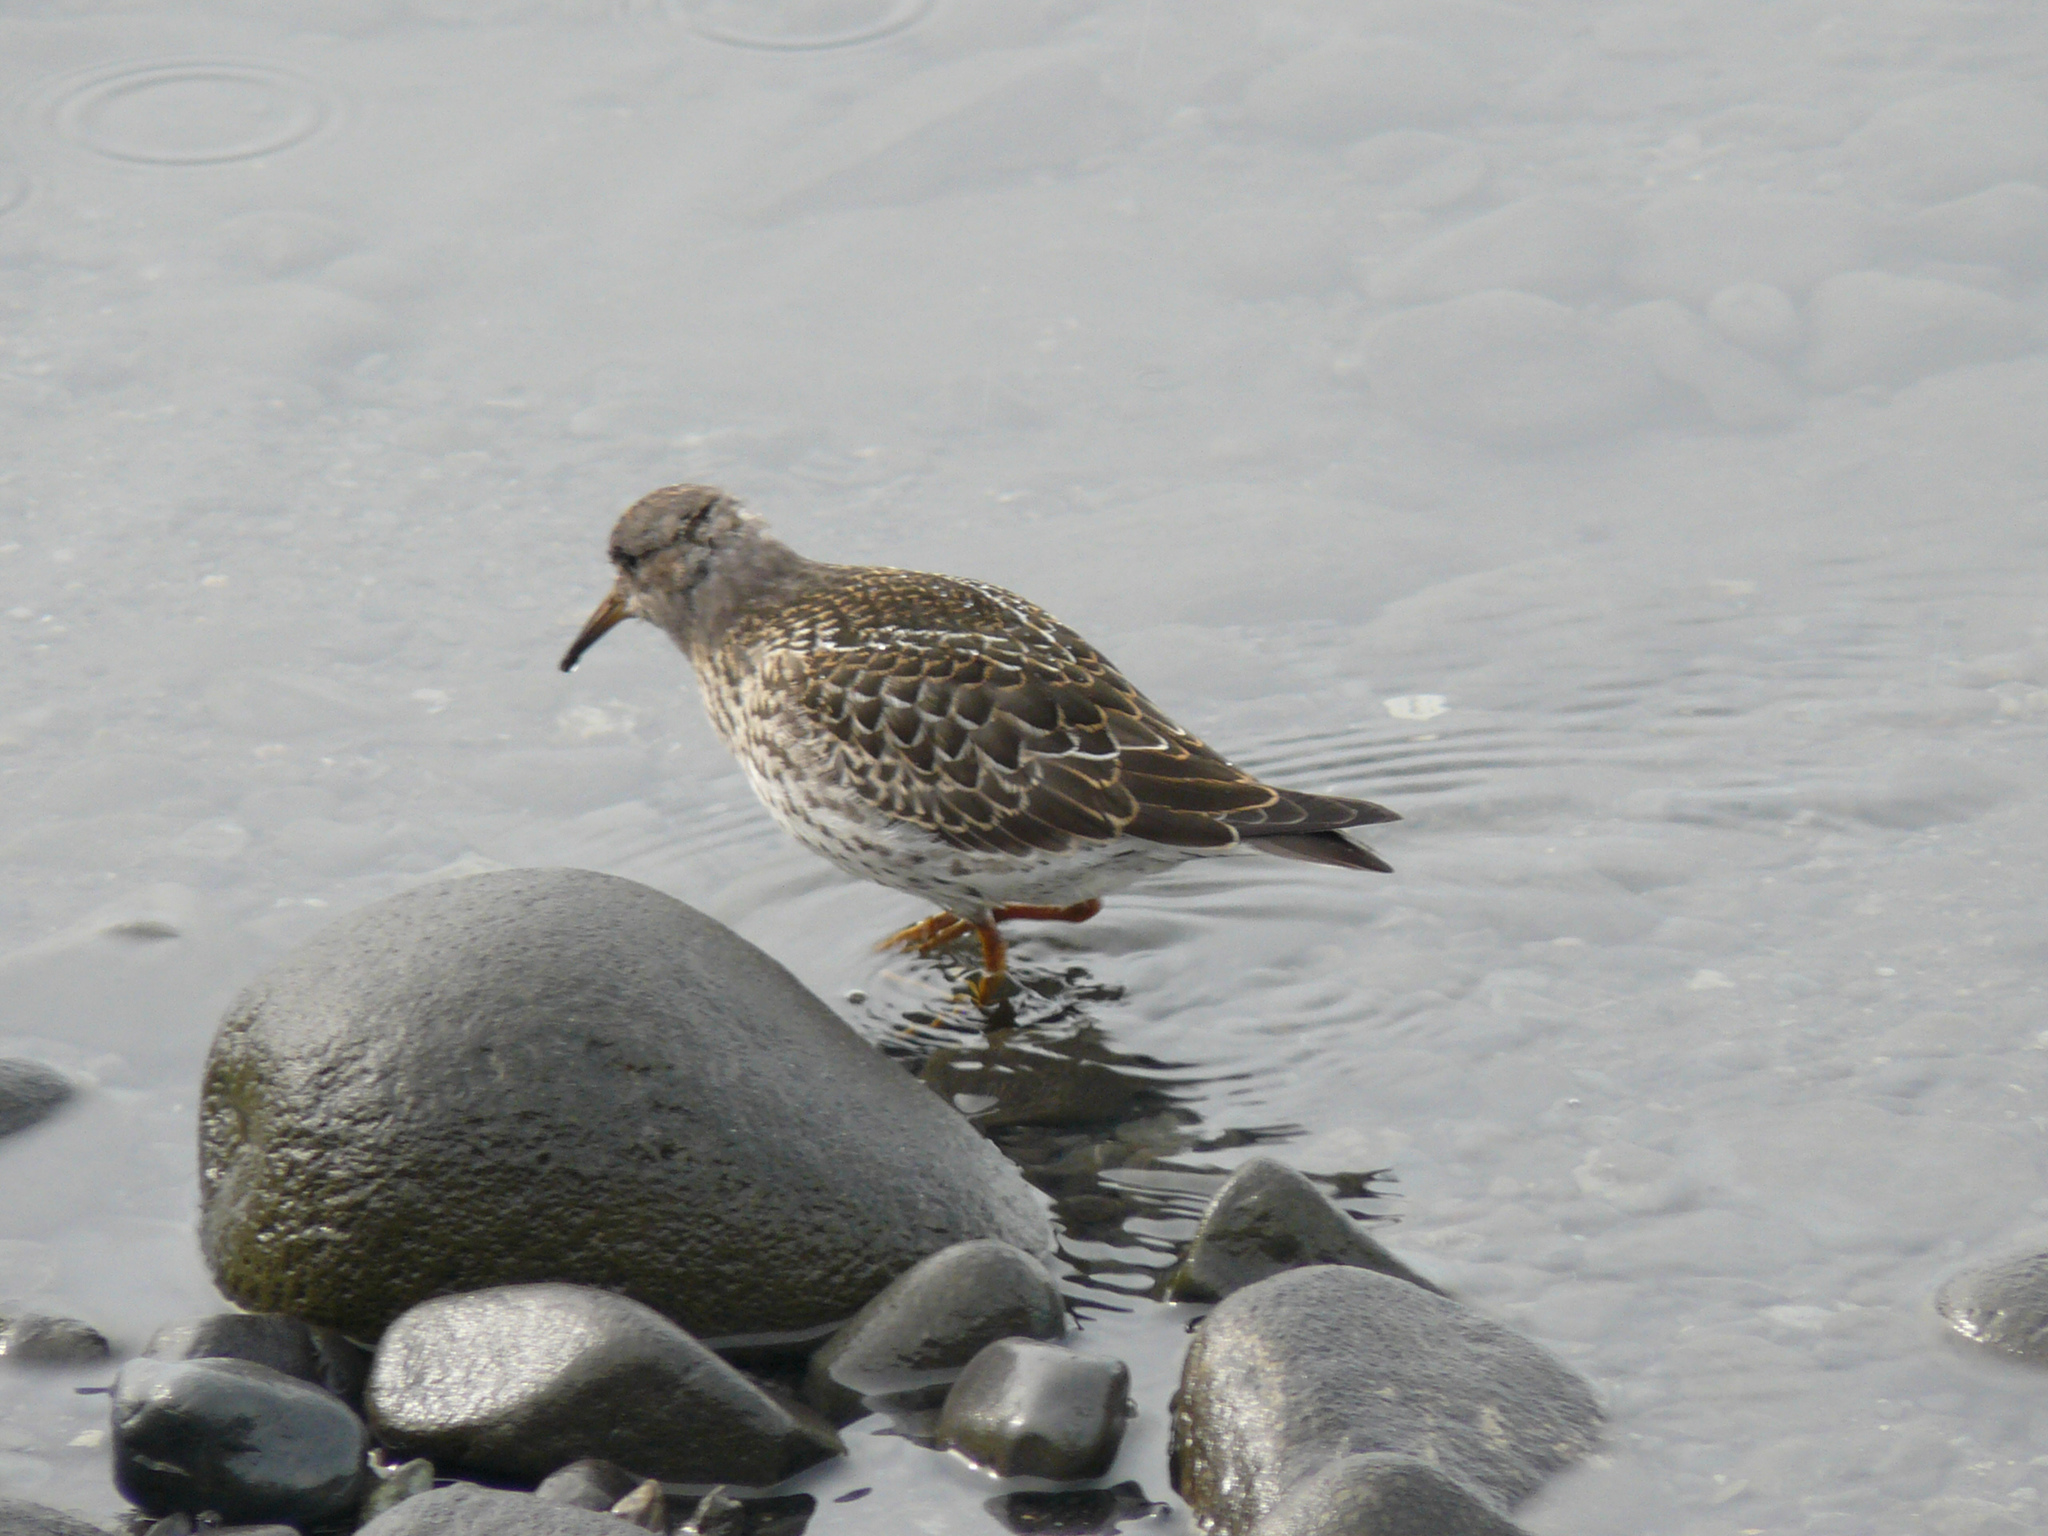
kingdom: Animalia
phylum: Chordata
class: Aves
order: Charadriiformes
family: Scolopacidae
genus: Calidris
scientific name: Calidris maritima
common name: Purple sandpiper
